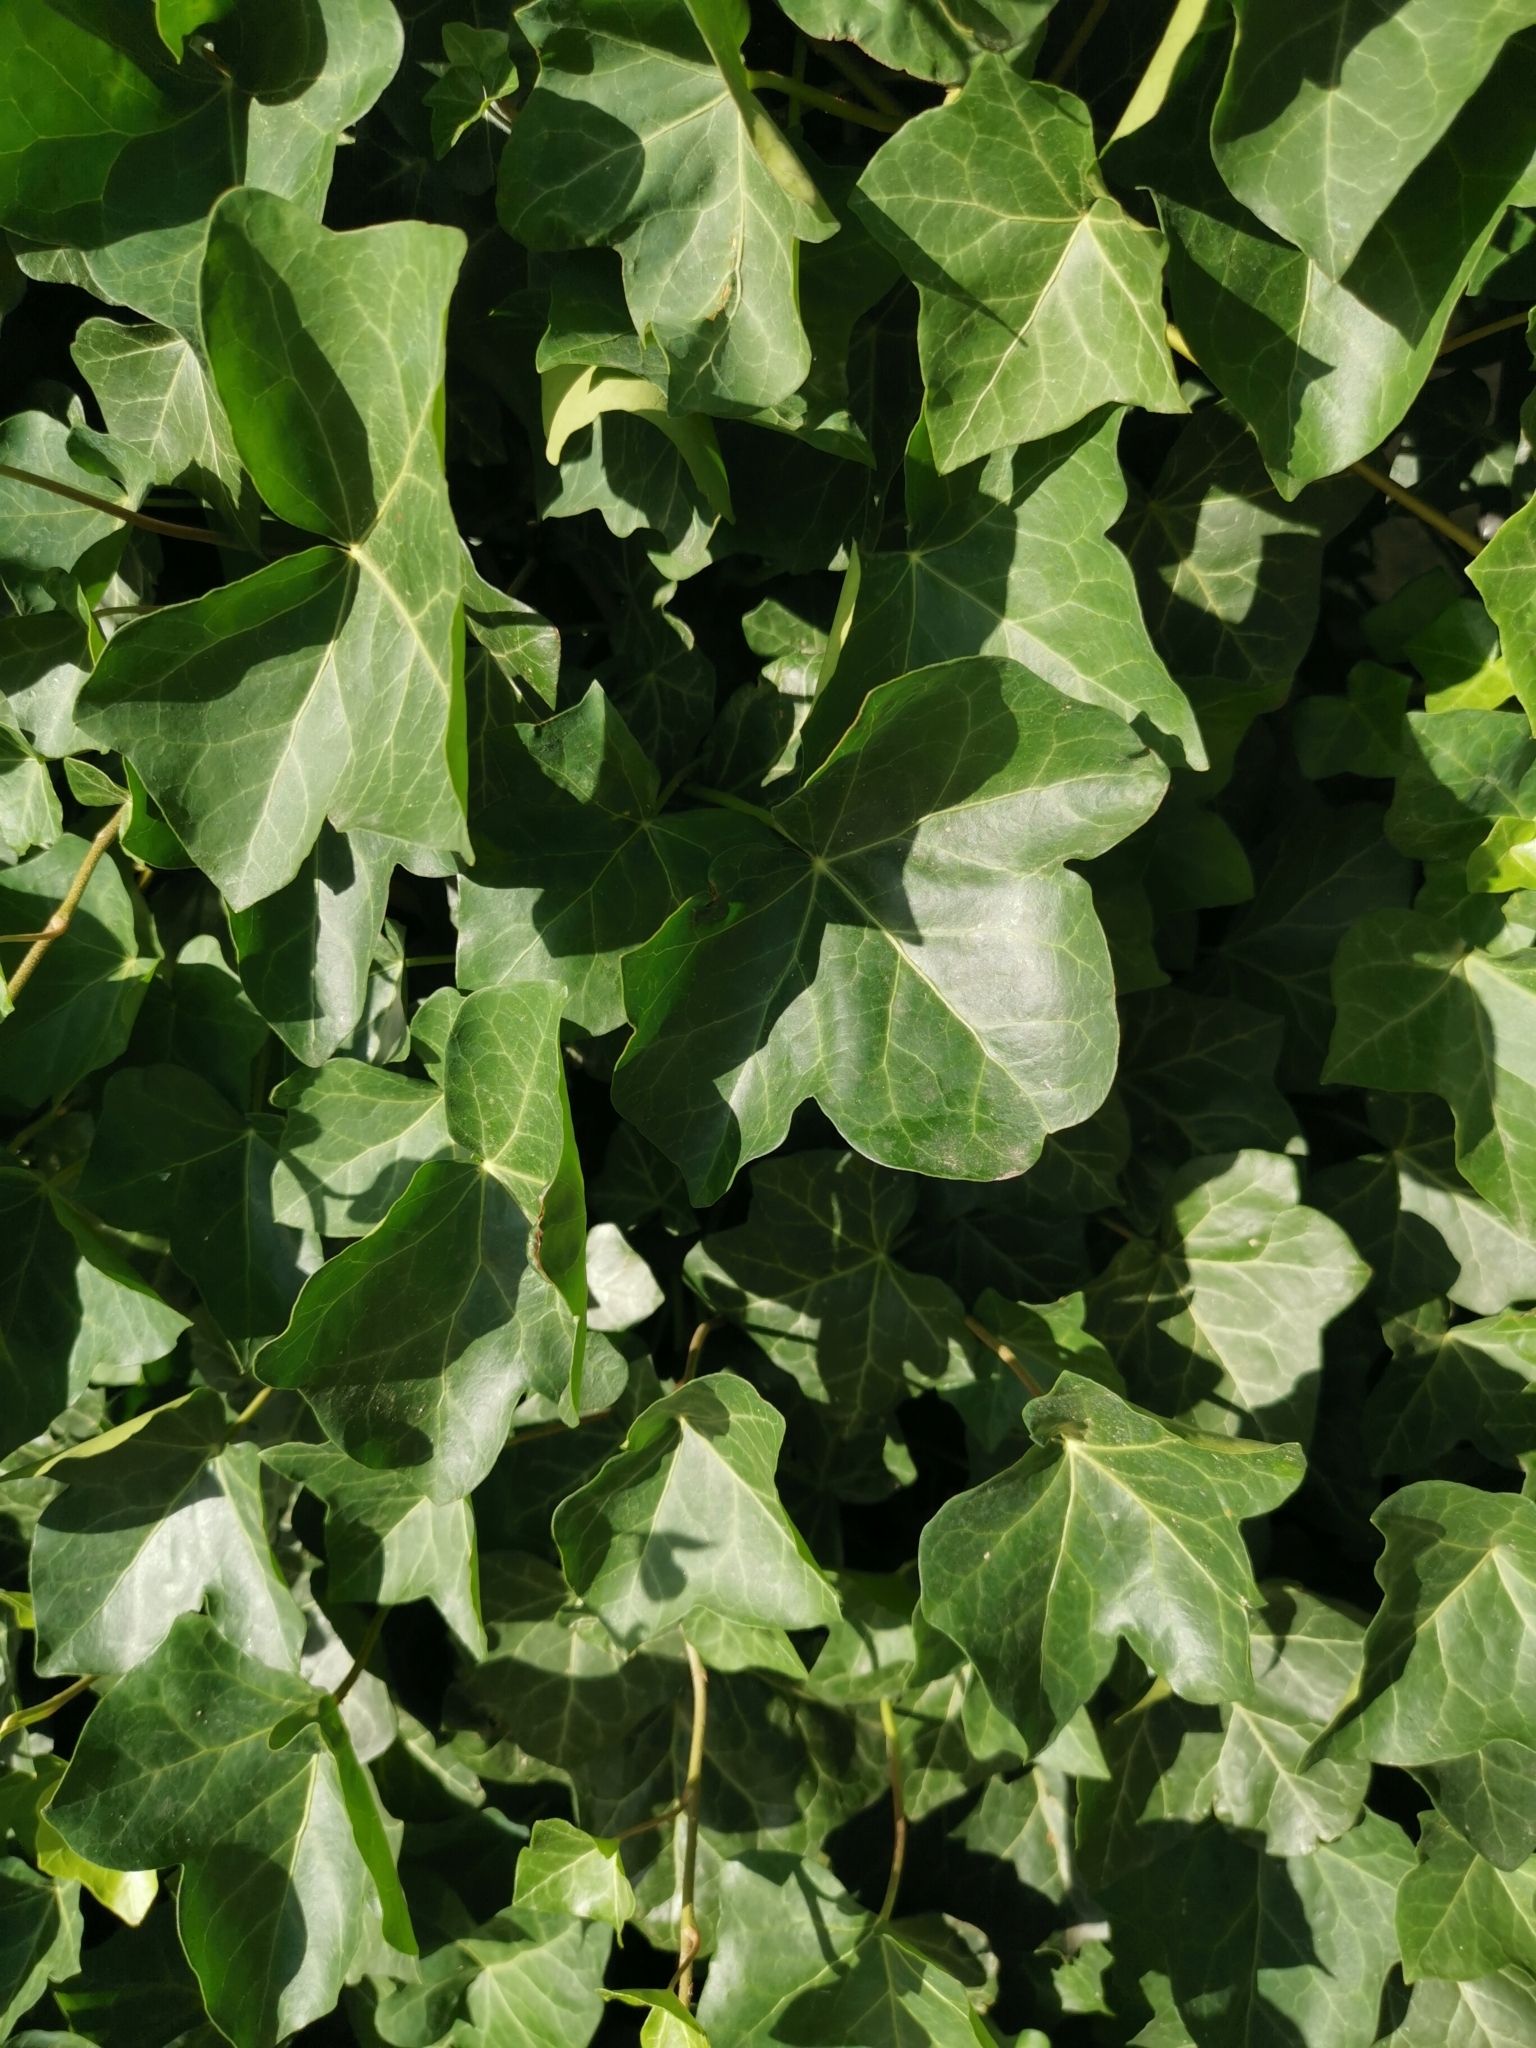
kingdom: Plantae
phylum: Tracheophyta
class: Magnoliopsida
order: Apiales
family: Araliaceae
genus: Hedera
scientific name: Hedera helix
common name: Ivy
